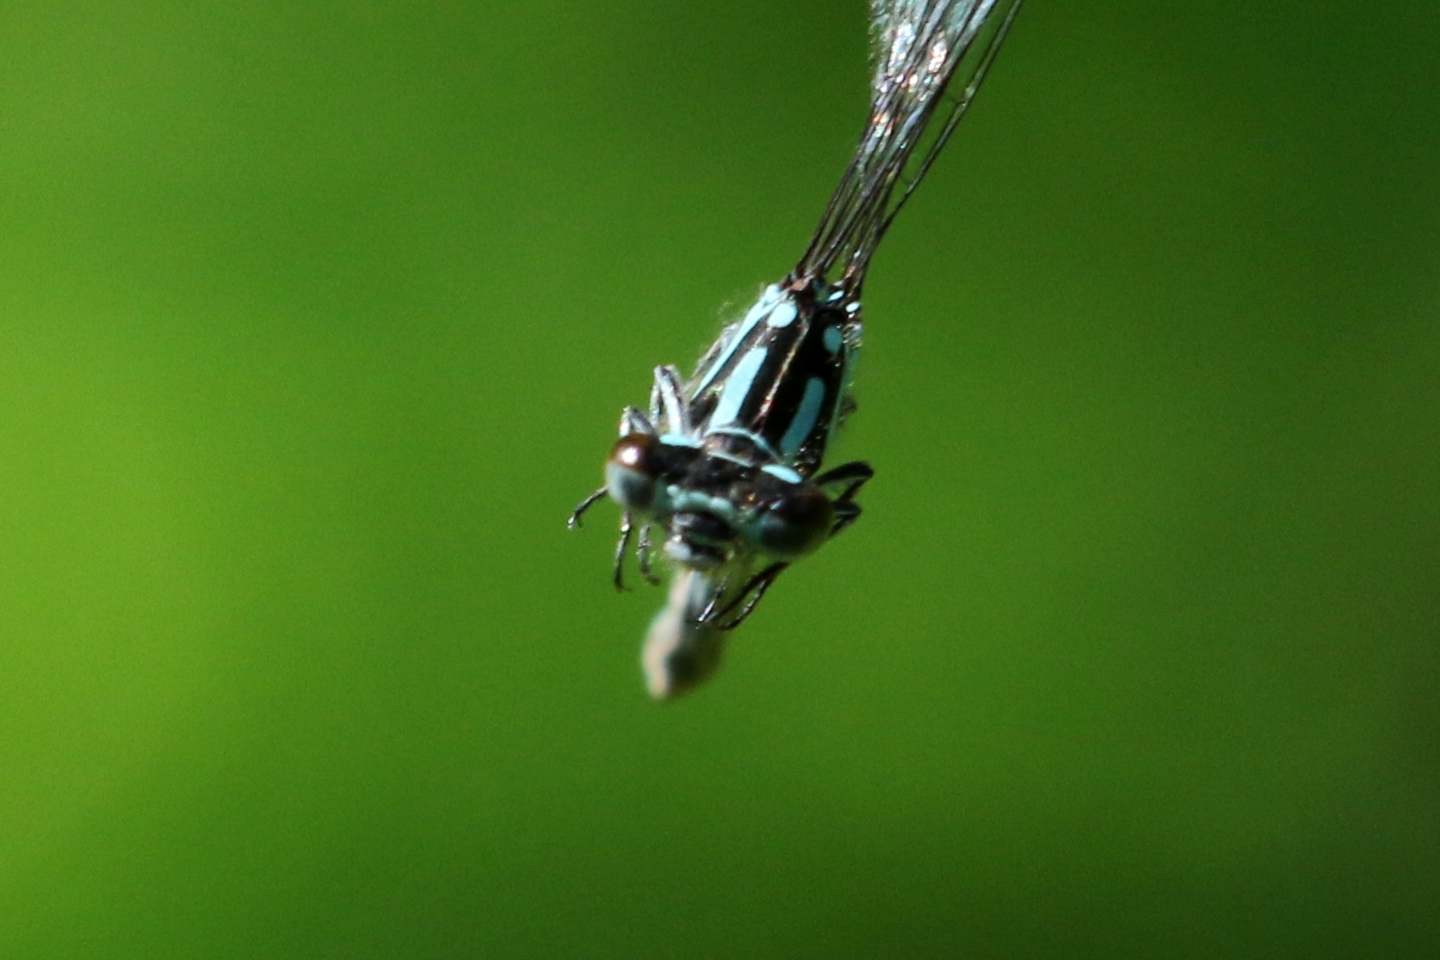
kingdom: Animalia
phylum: Arthropoda
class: Insecta
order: Odonata
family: Coenagrionidae
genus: Coenagrion
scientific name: Coenagrion interrogatum
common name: Subarctic bluet
